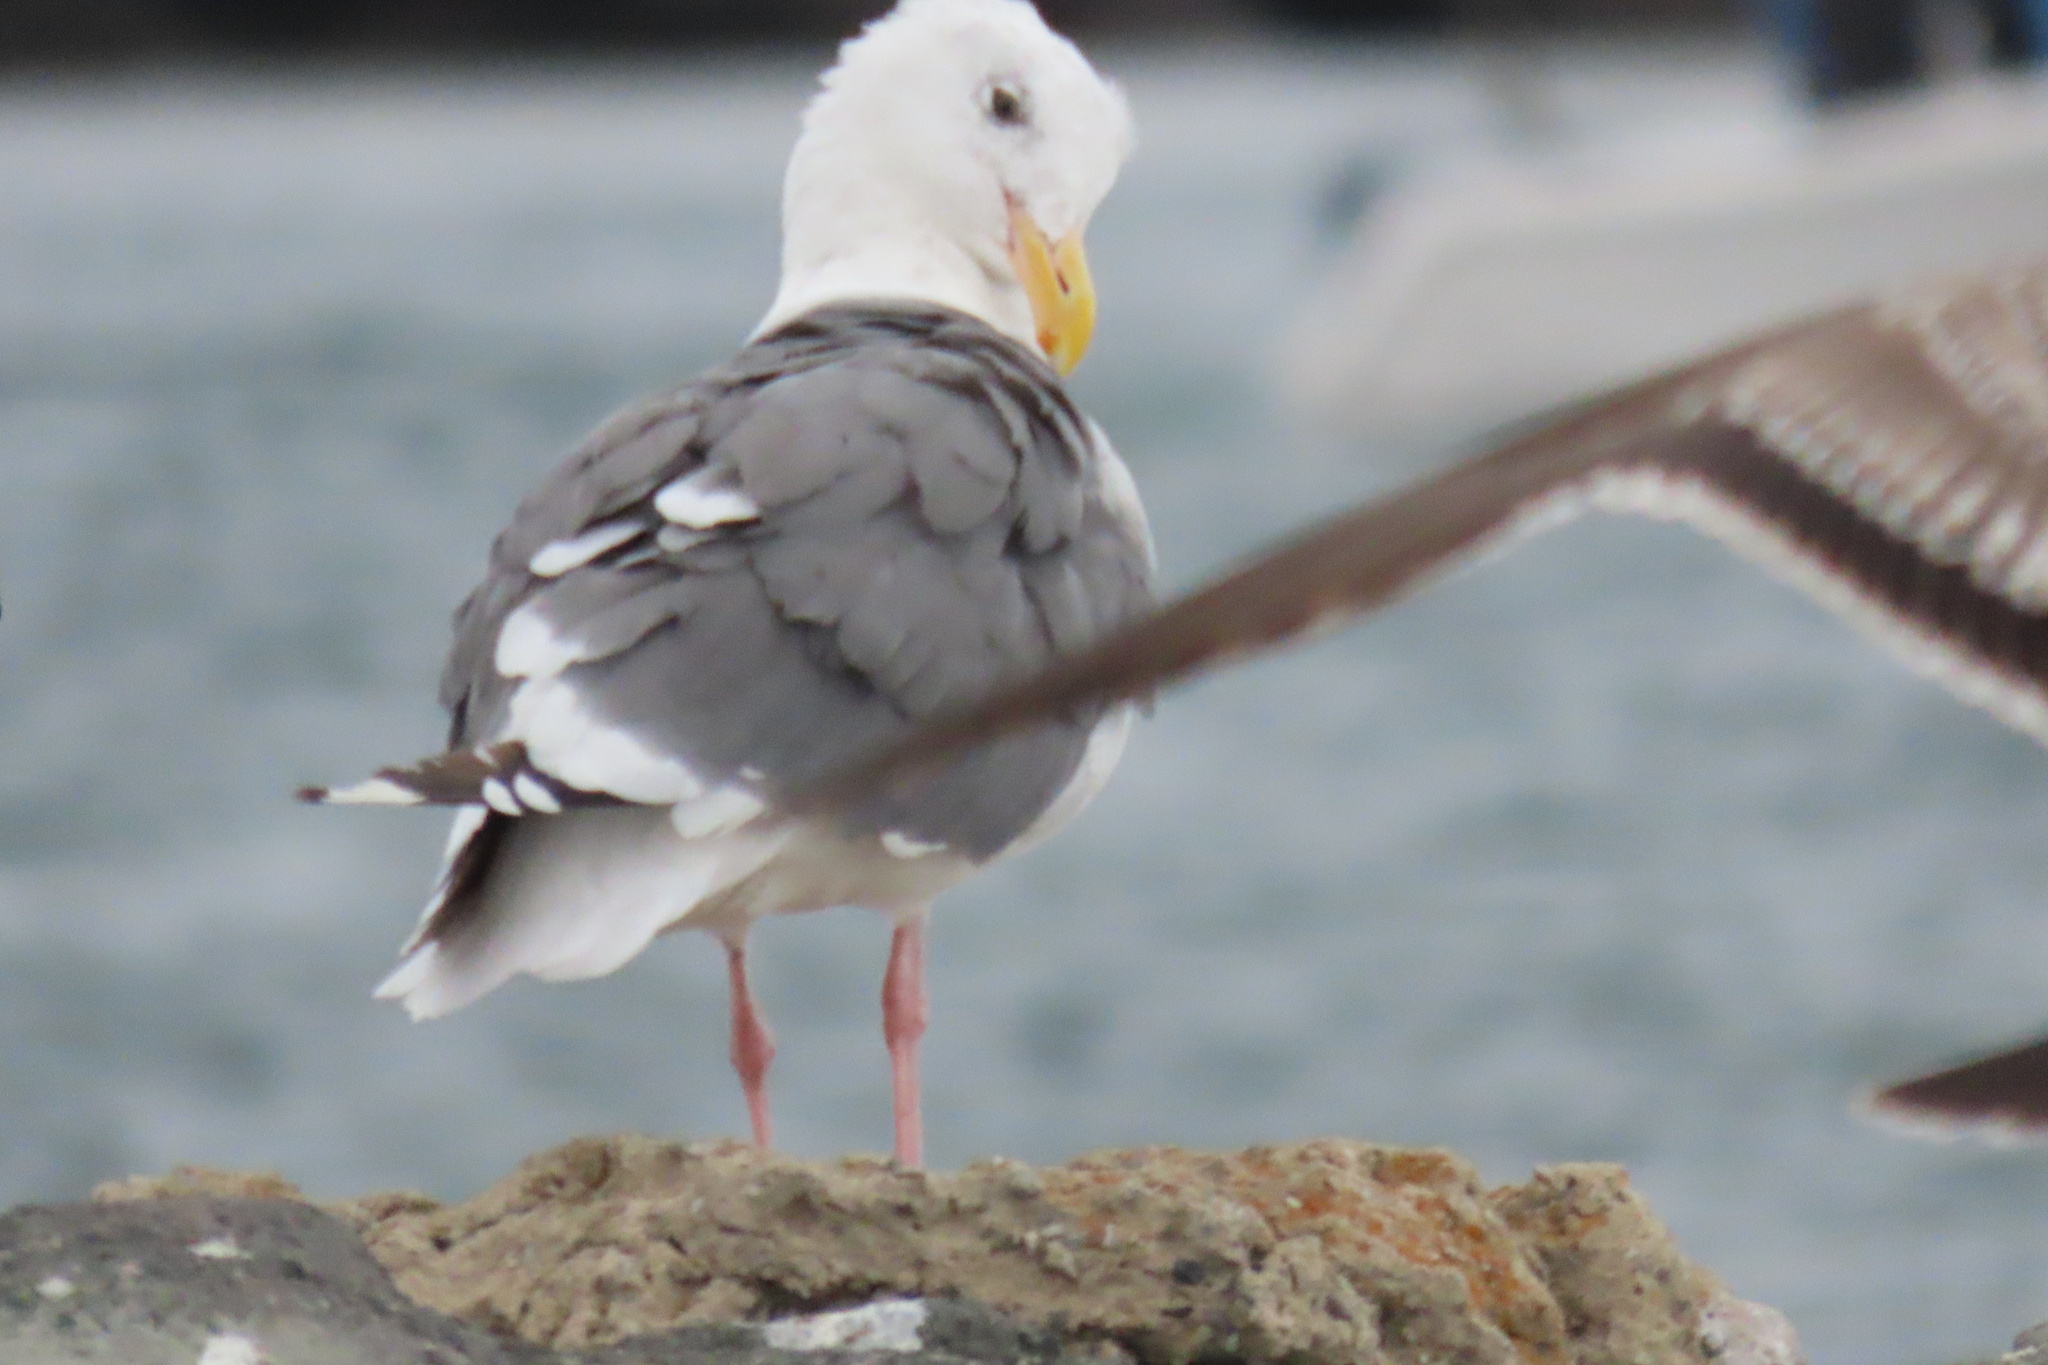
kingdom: Animalia
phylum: Chordata
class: Aves
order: Charadriiformes
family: Laridae
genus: Larus
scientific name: Larus occidentalis
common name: Western gull
